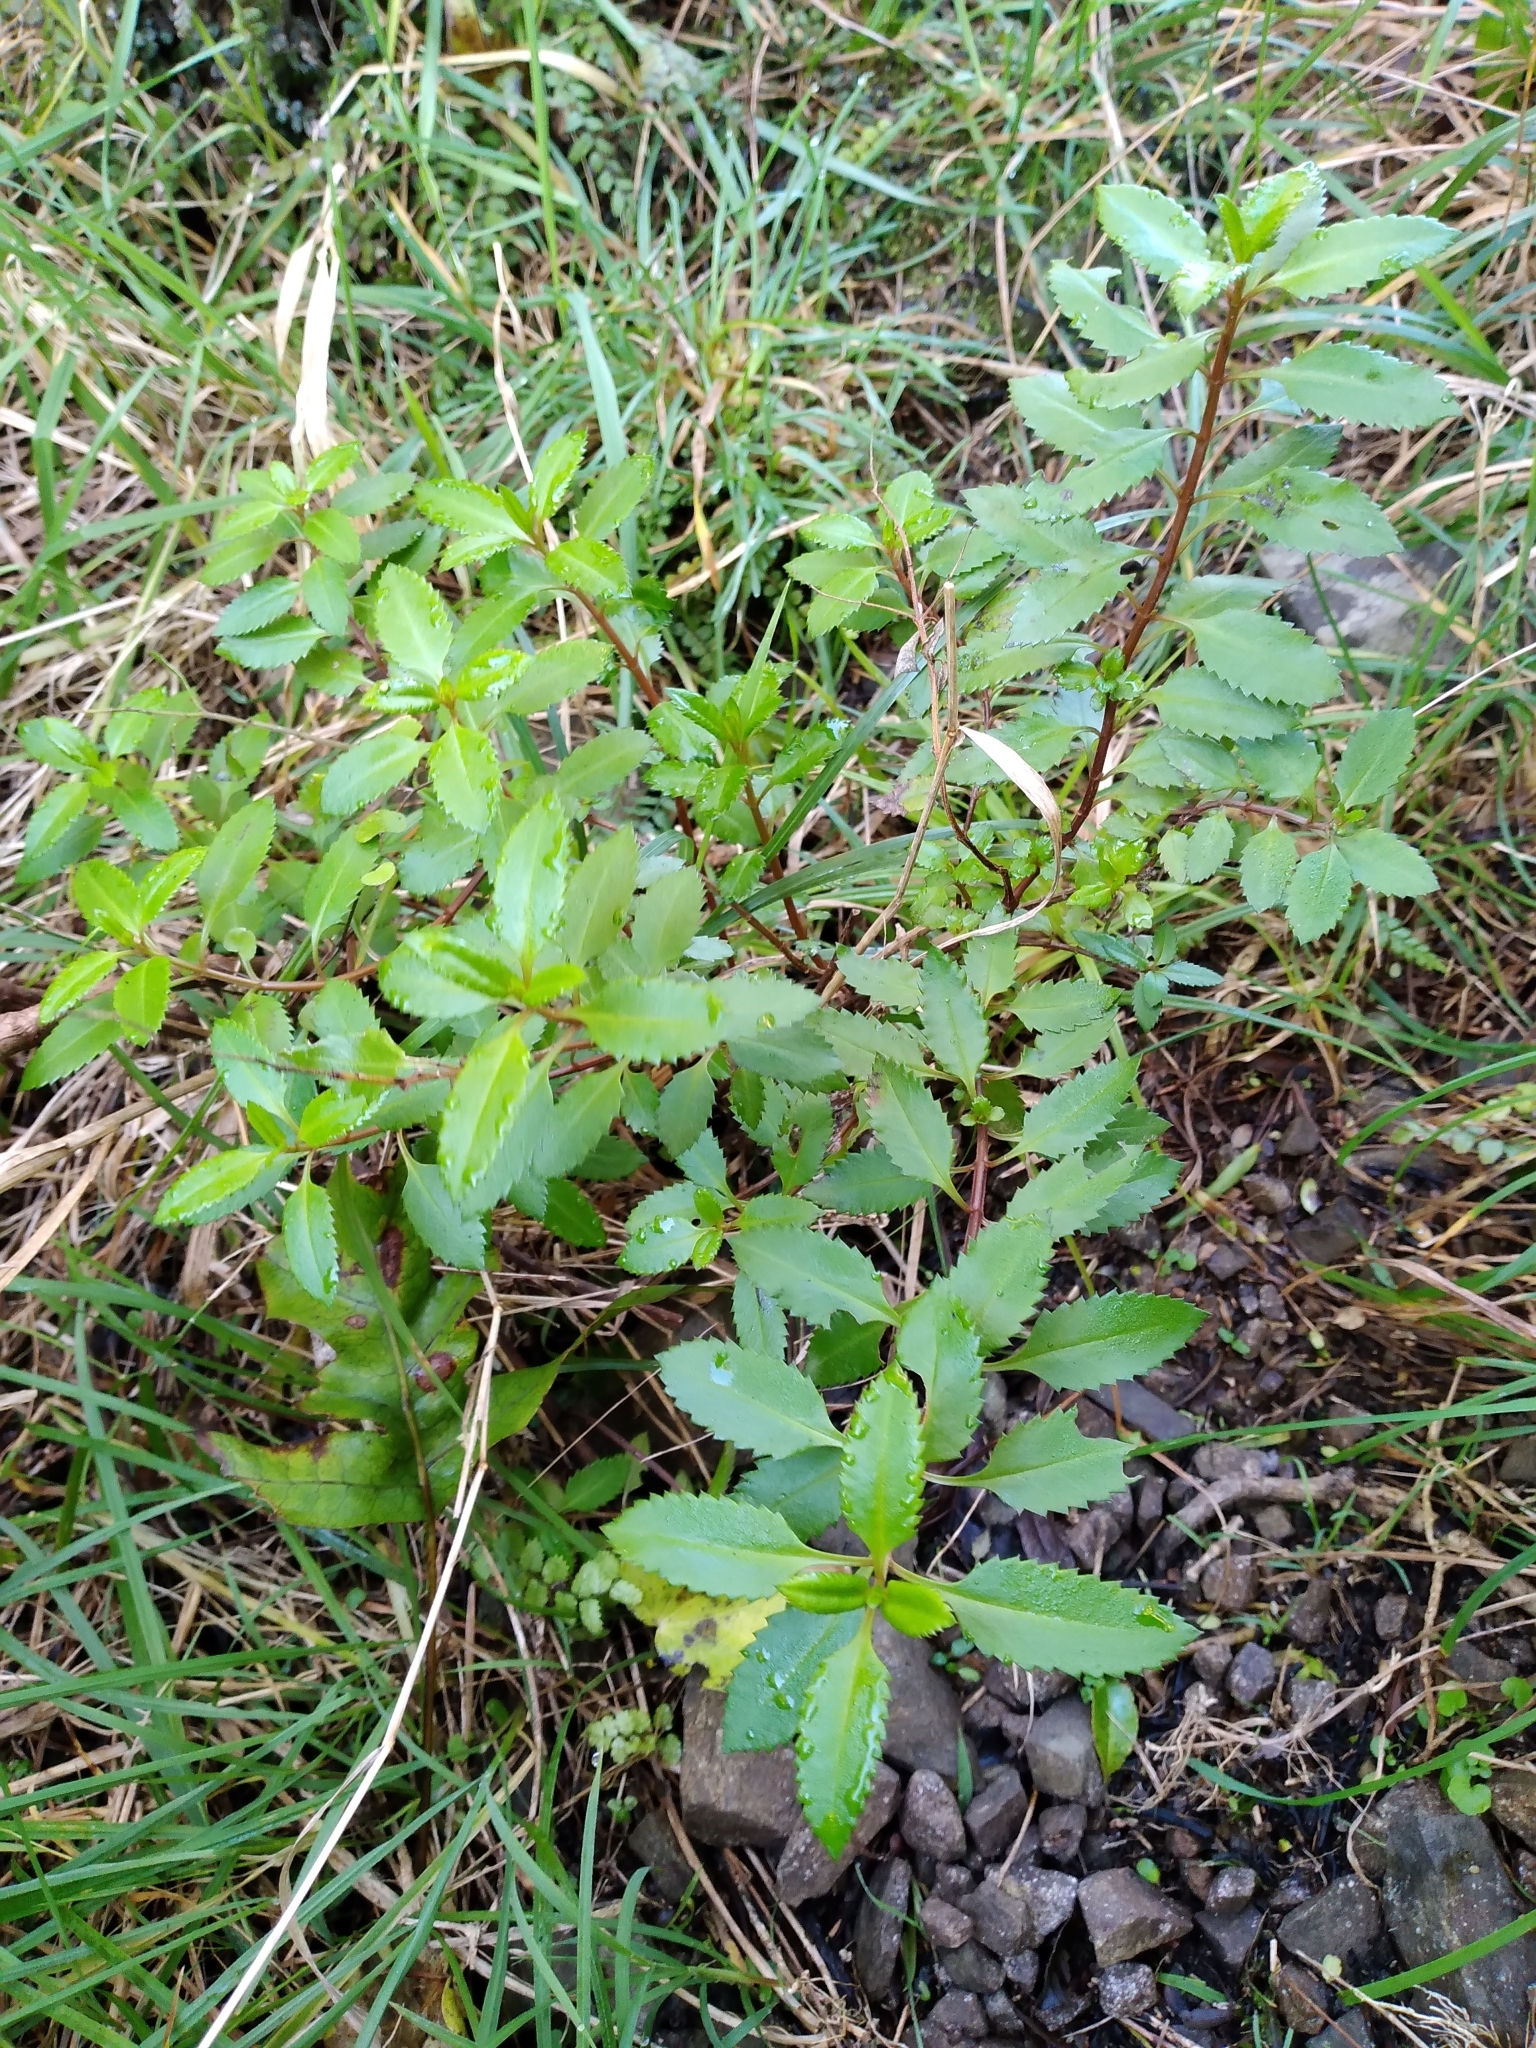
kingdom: Plantae
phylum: Tracheophyta
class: Magnoliopsida
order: Saxifragales
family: Haloragaceae
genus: Haloragis
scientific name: Haloragis erecta
